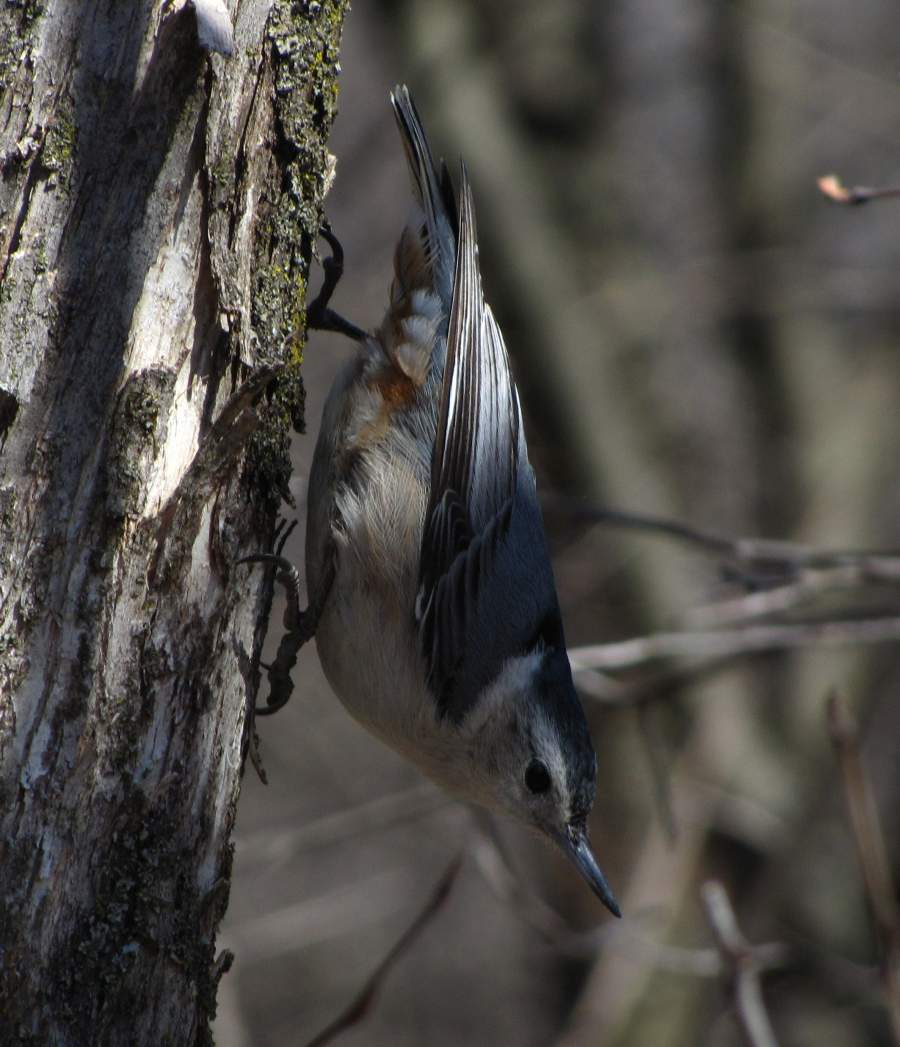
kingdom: Animalia
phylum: Chordata
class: Aves
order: Passeriformes
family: Sittidae
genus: Sitta
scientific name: Sitta carolinensis
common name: White-breasted nuthatch
